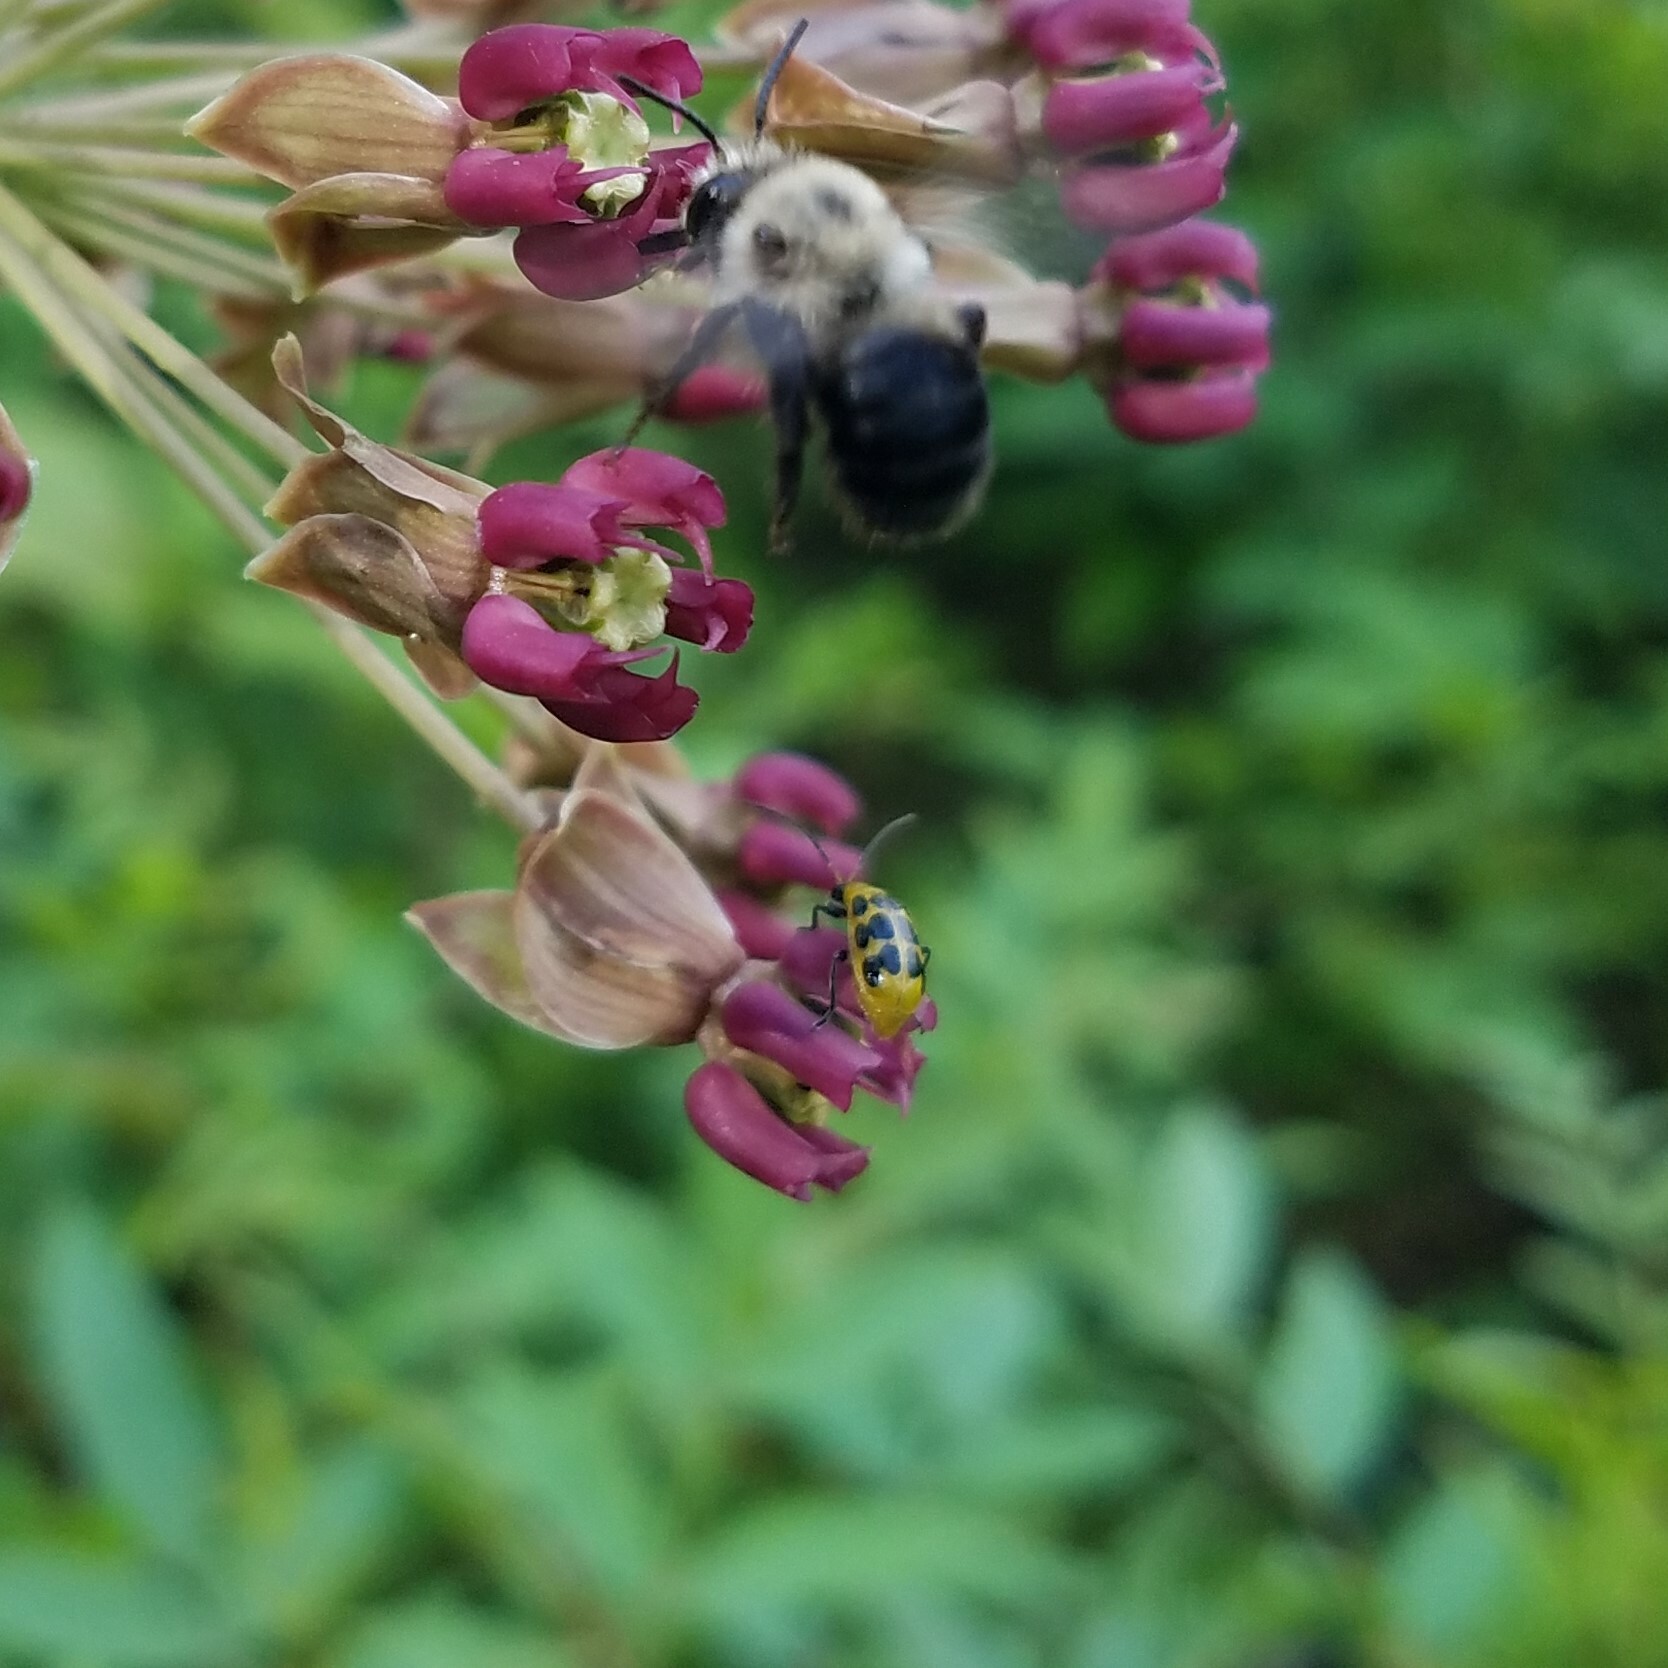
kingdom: Animalia
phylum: Arthropoda
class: Insecta
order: Coleoptera
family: Chrysomelidae
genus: Diabrotica
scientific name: Diabrotica undecimpunctata
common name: Spotted cucumber beetle
